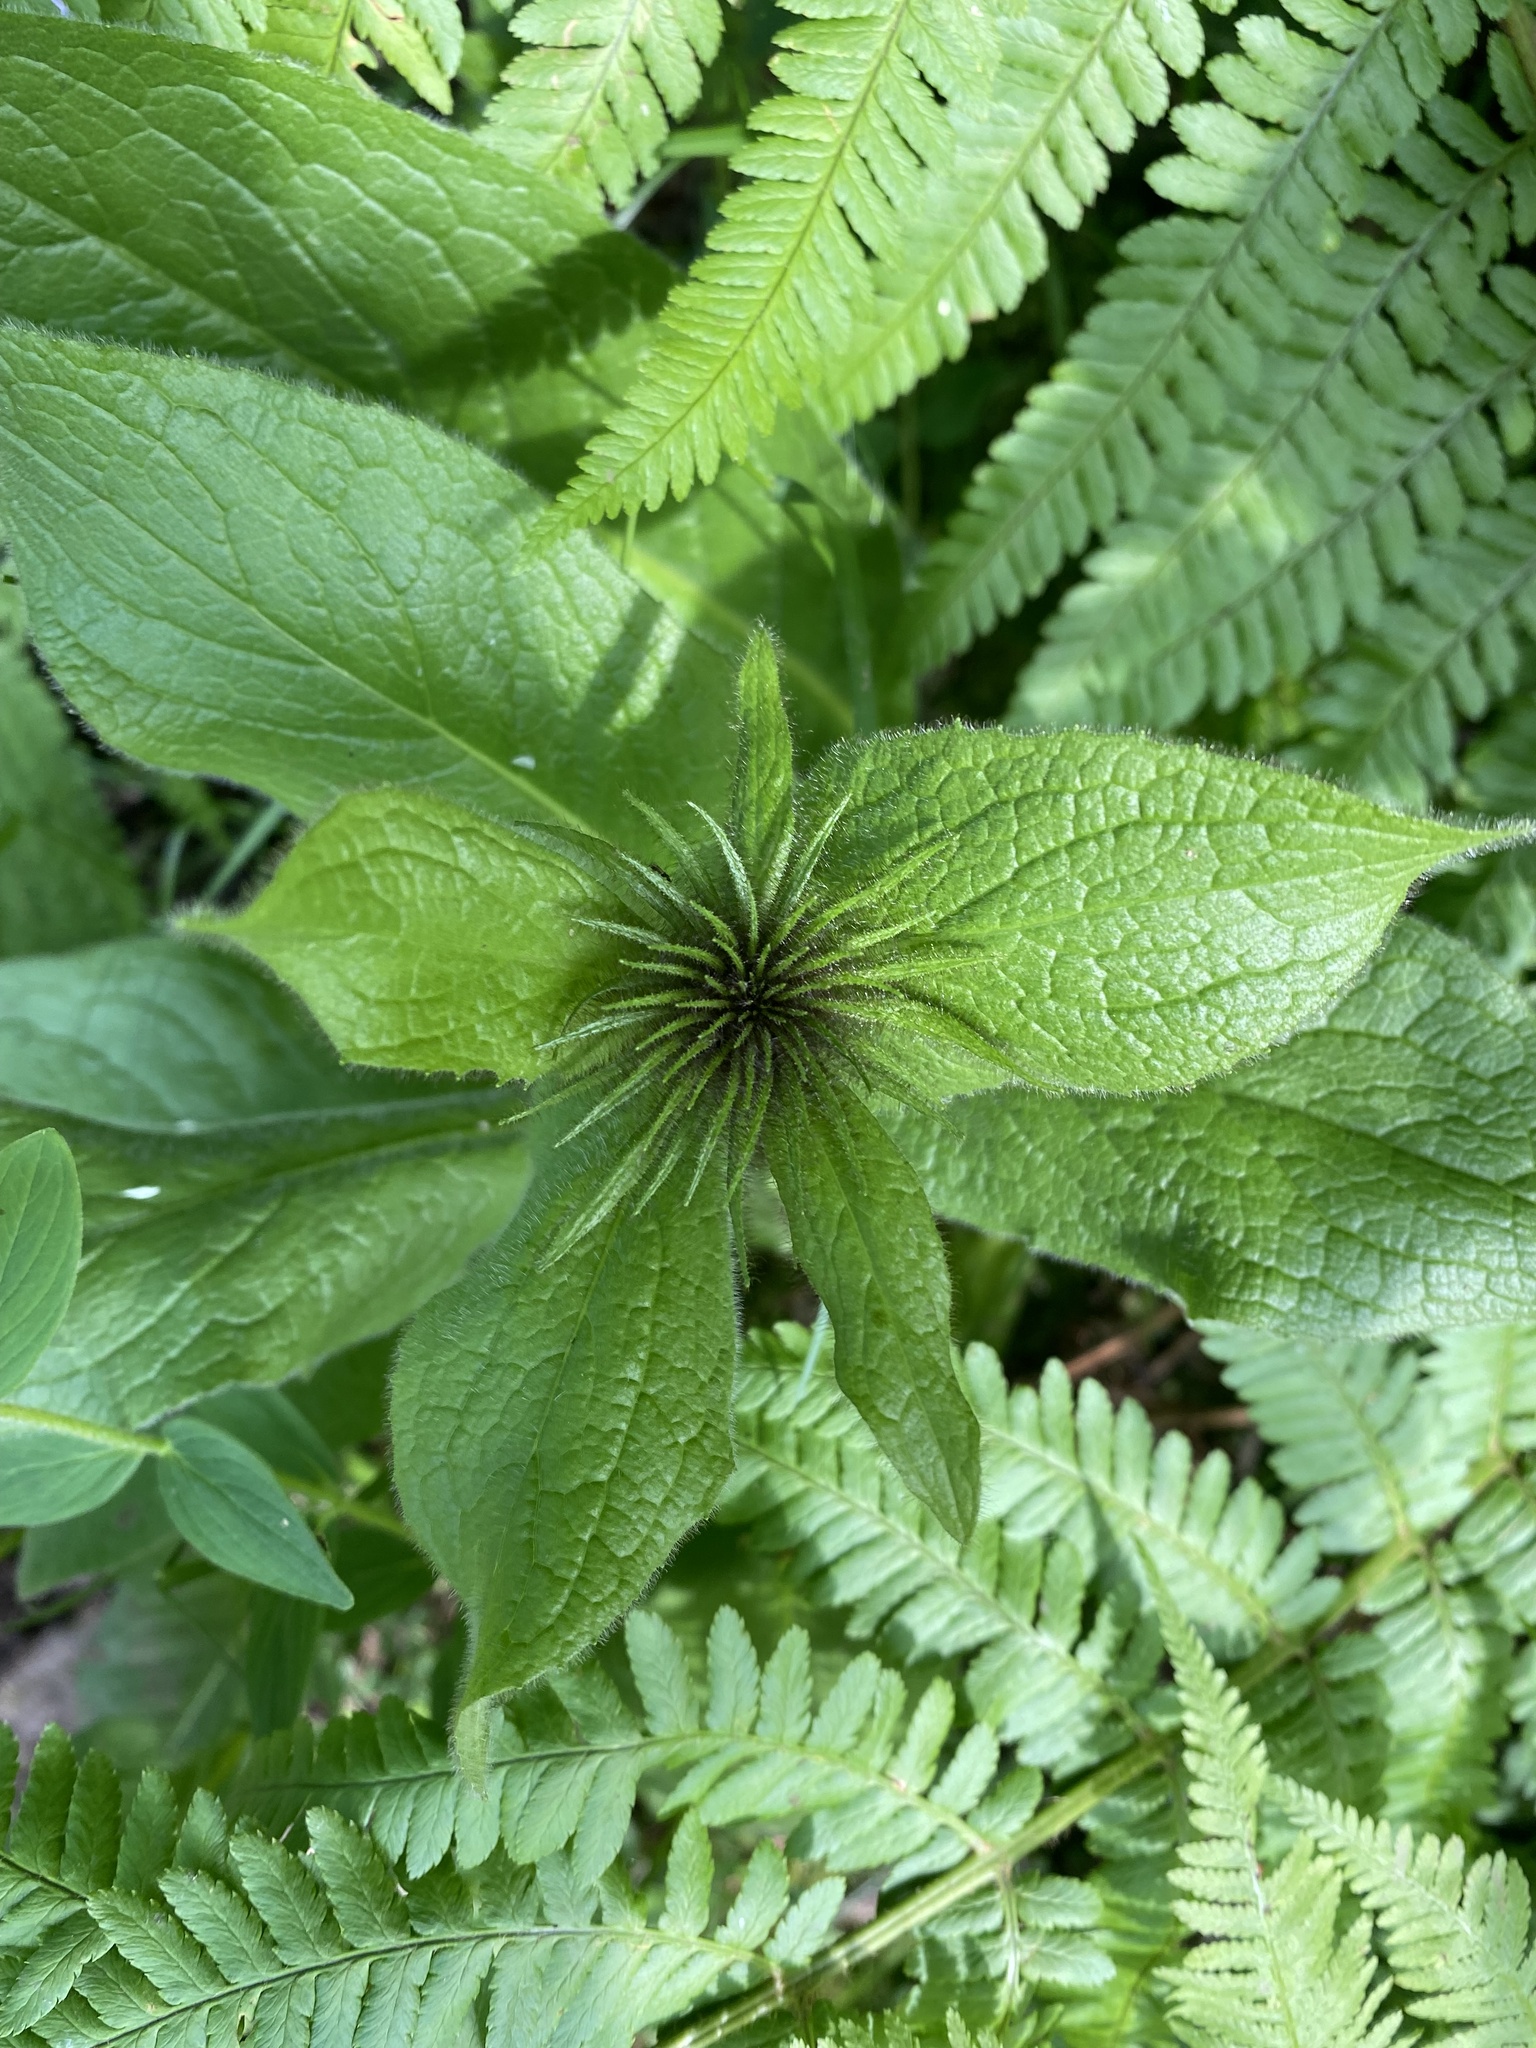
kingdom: Plantae
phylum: Tracheophyta
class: Magnoliopsida
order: Asterales
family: Asteraceae
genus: Pentanema
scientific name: Pentanema orientale
